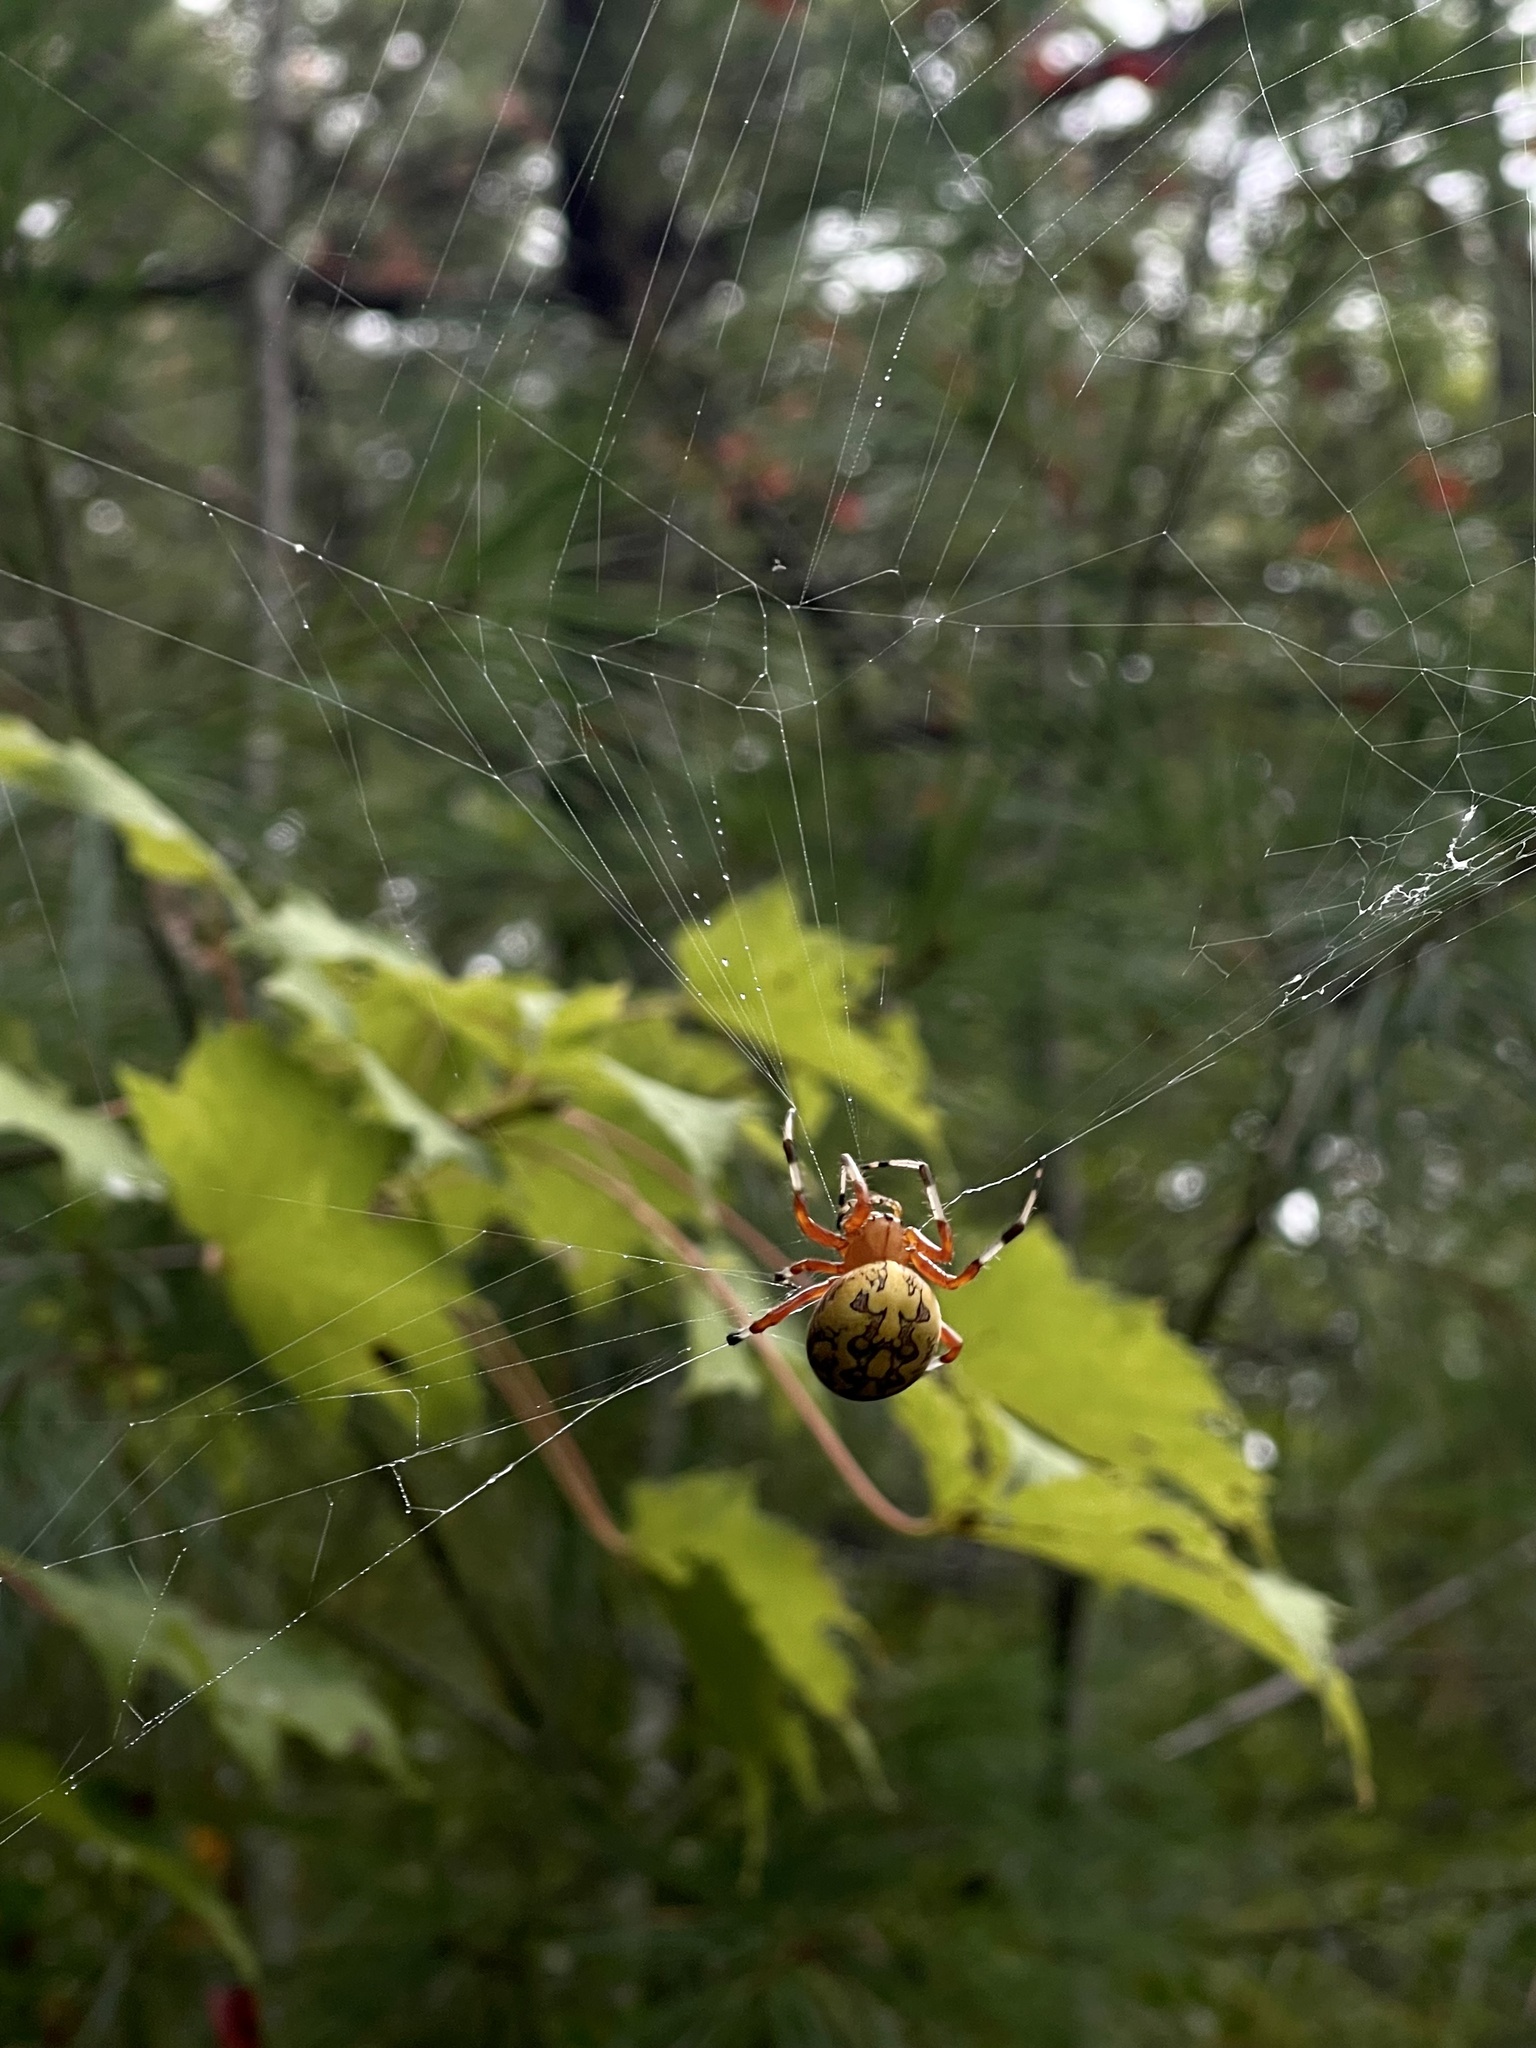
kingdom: Animalia
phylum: Arthropoda
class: Arachnida
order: Araneae
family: Araneidae
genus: Araneus
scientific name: Araneus marmoreus
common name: Marbled orbweaver
